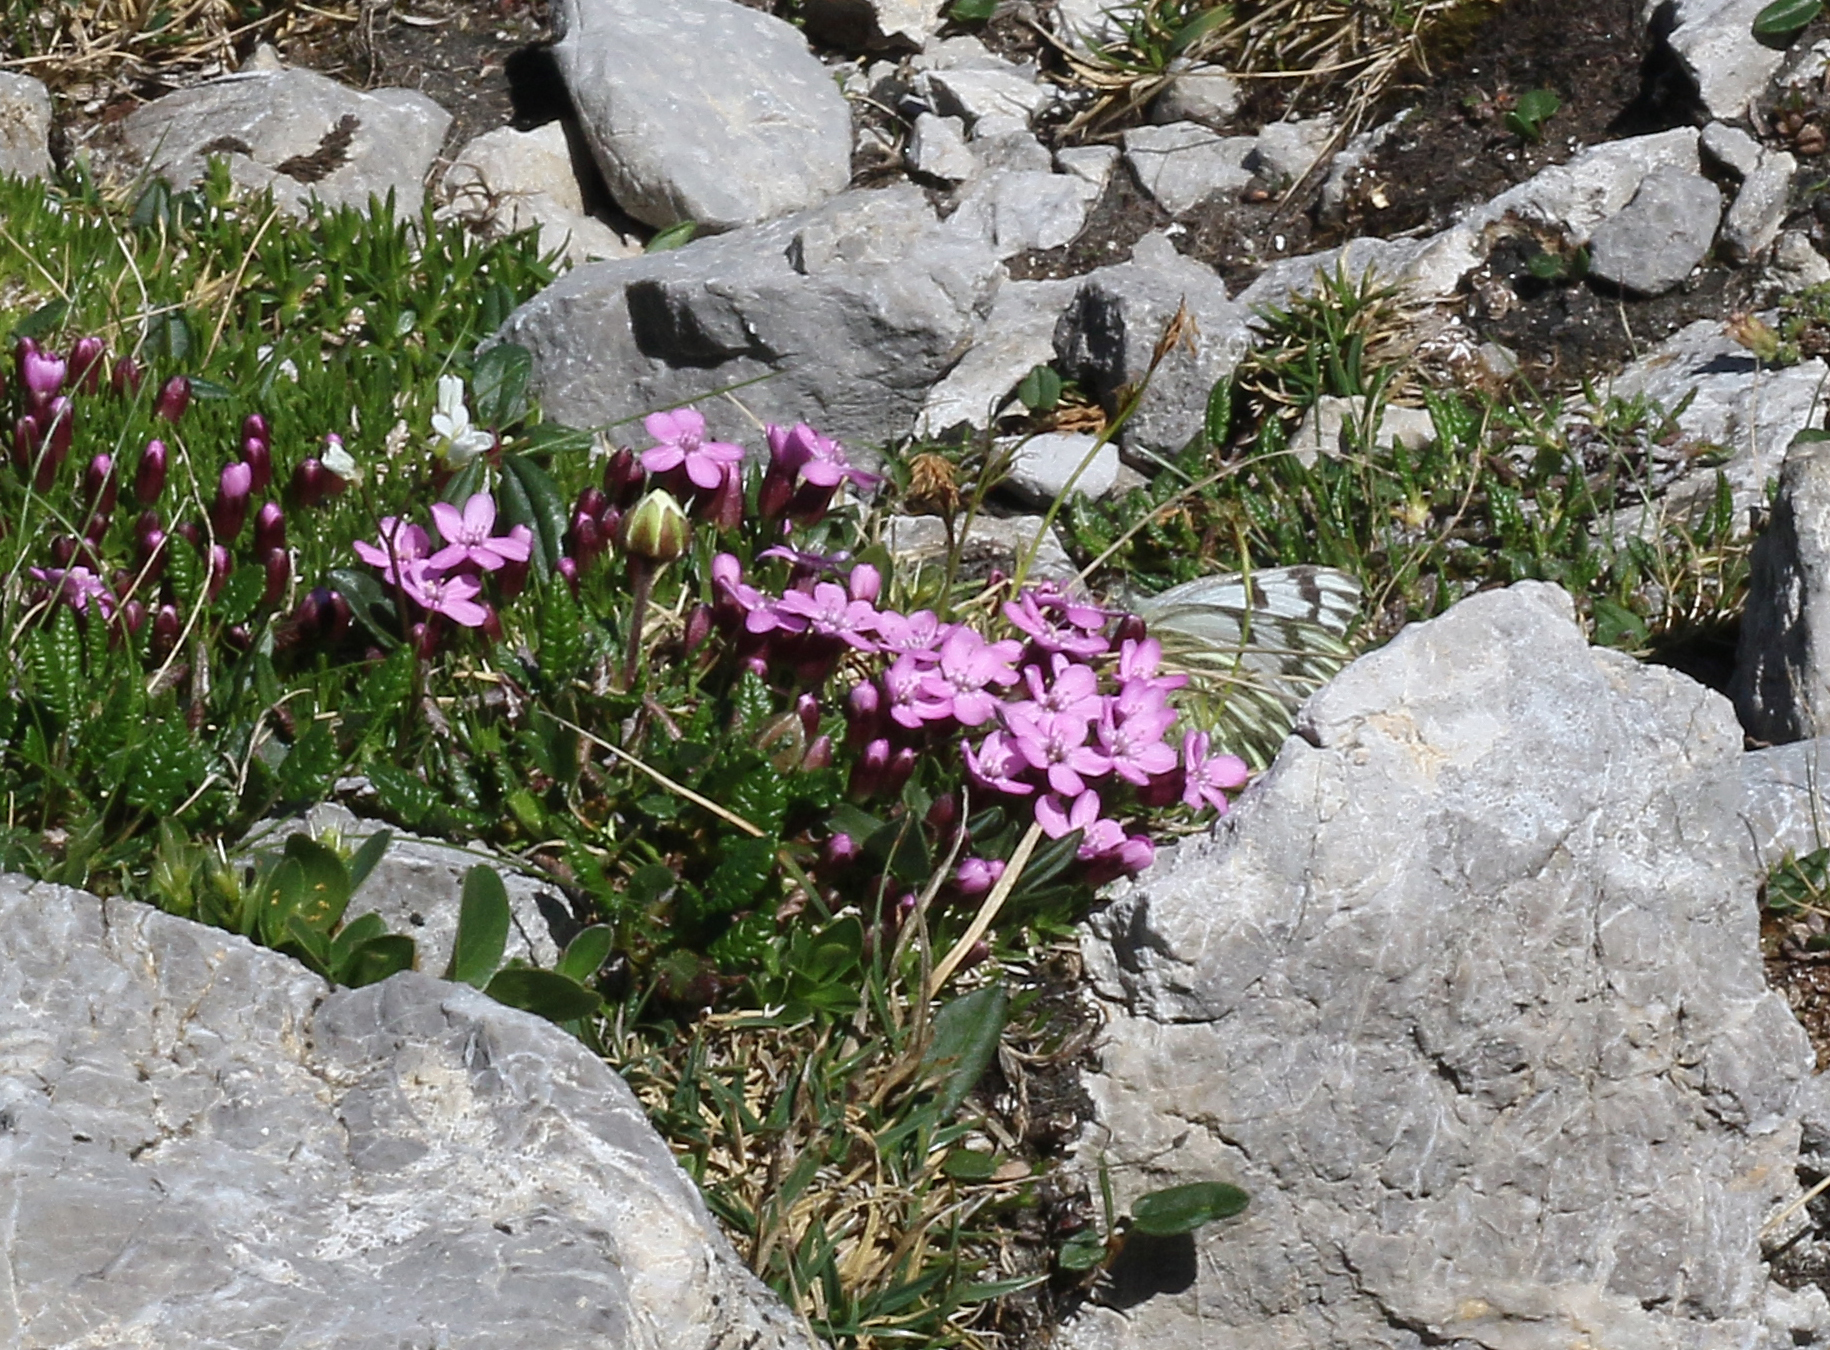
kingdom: Animalia
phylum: Arthropoda
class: Insecta
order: Lepidoptera
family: Pieridae
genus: Pontia
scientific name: Pontia callidice
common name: Peak white
